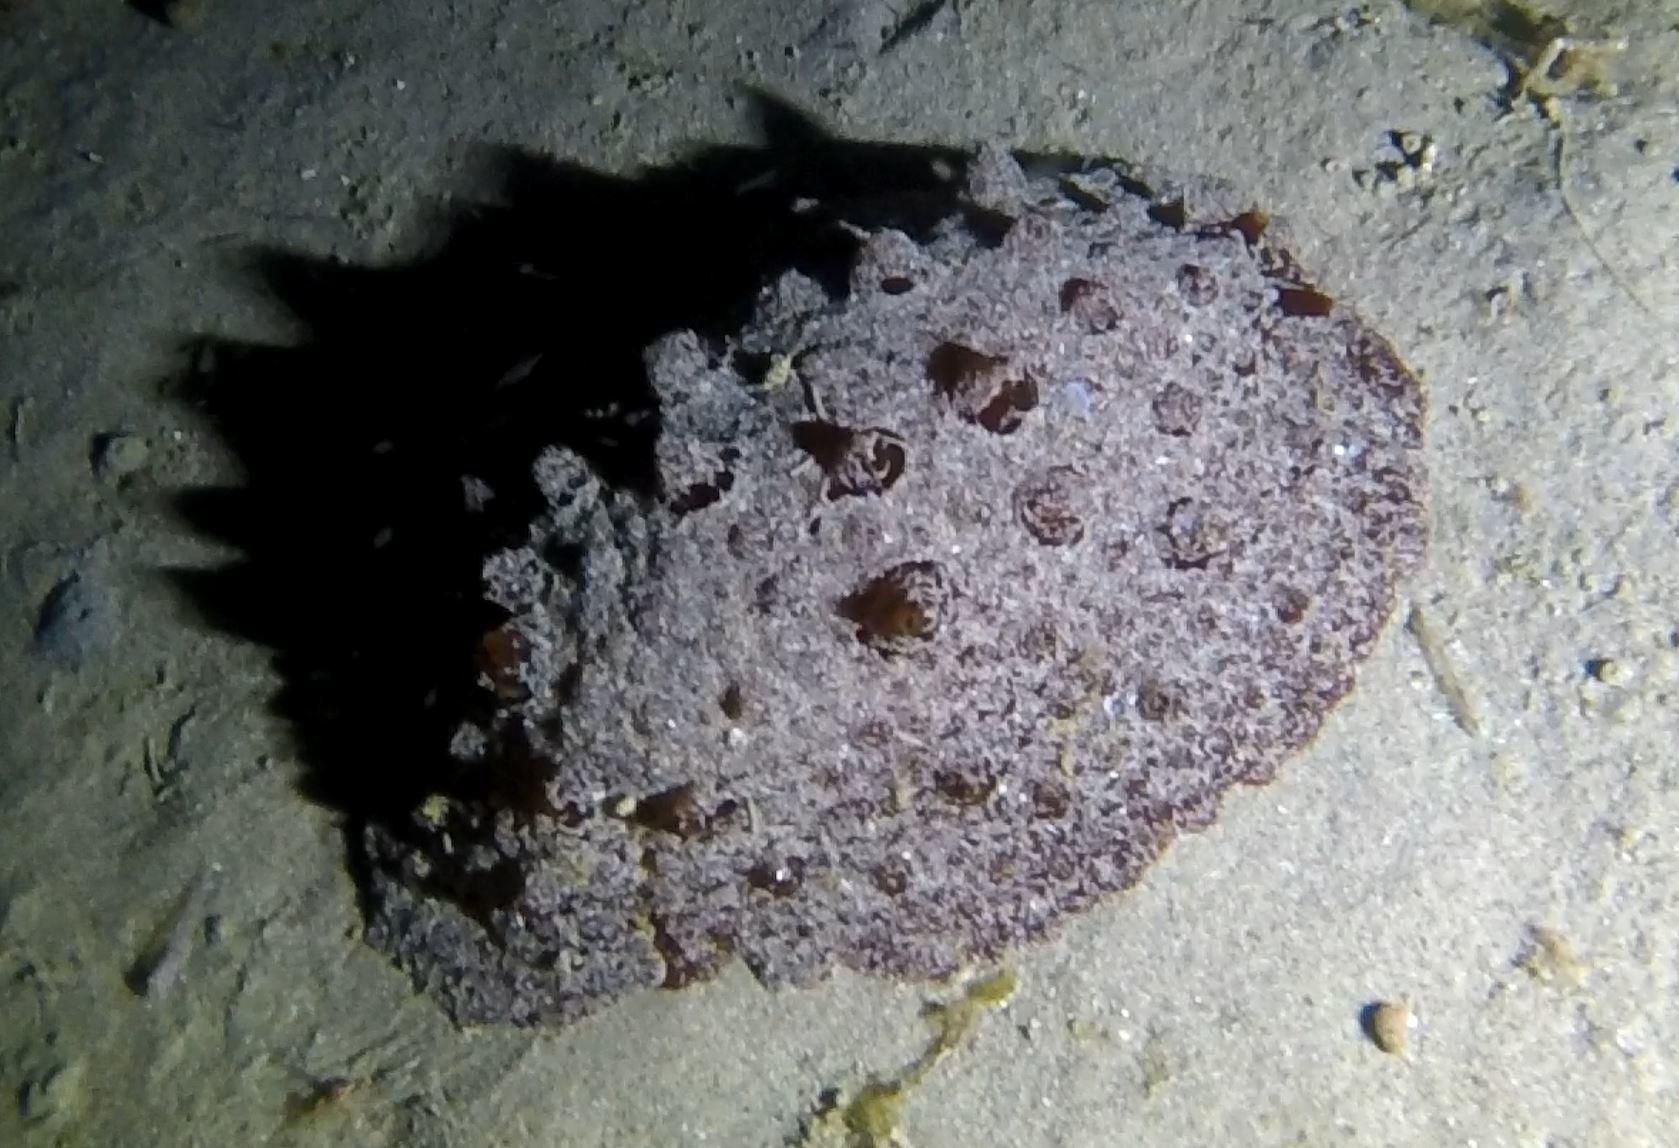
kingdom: Animalia
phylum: Mollusca
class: Gastropoda
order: Pleurobranchida
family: Pleurobranchidae
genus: Pleurobranchus
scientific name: Pleurobranchus hilli
